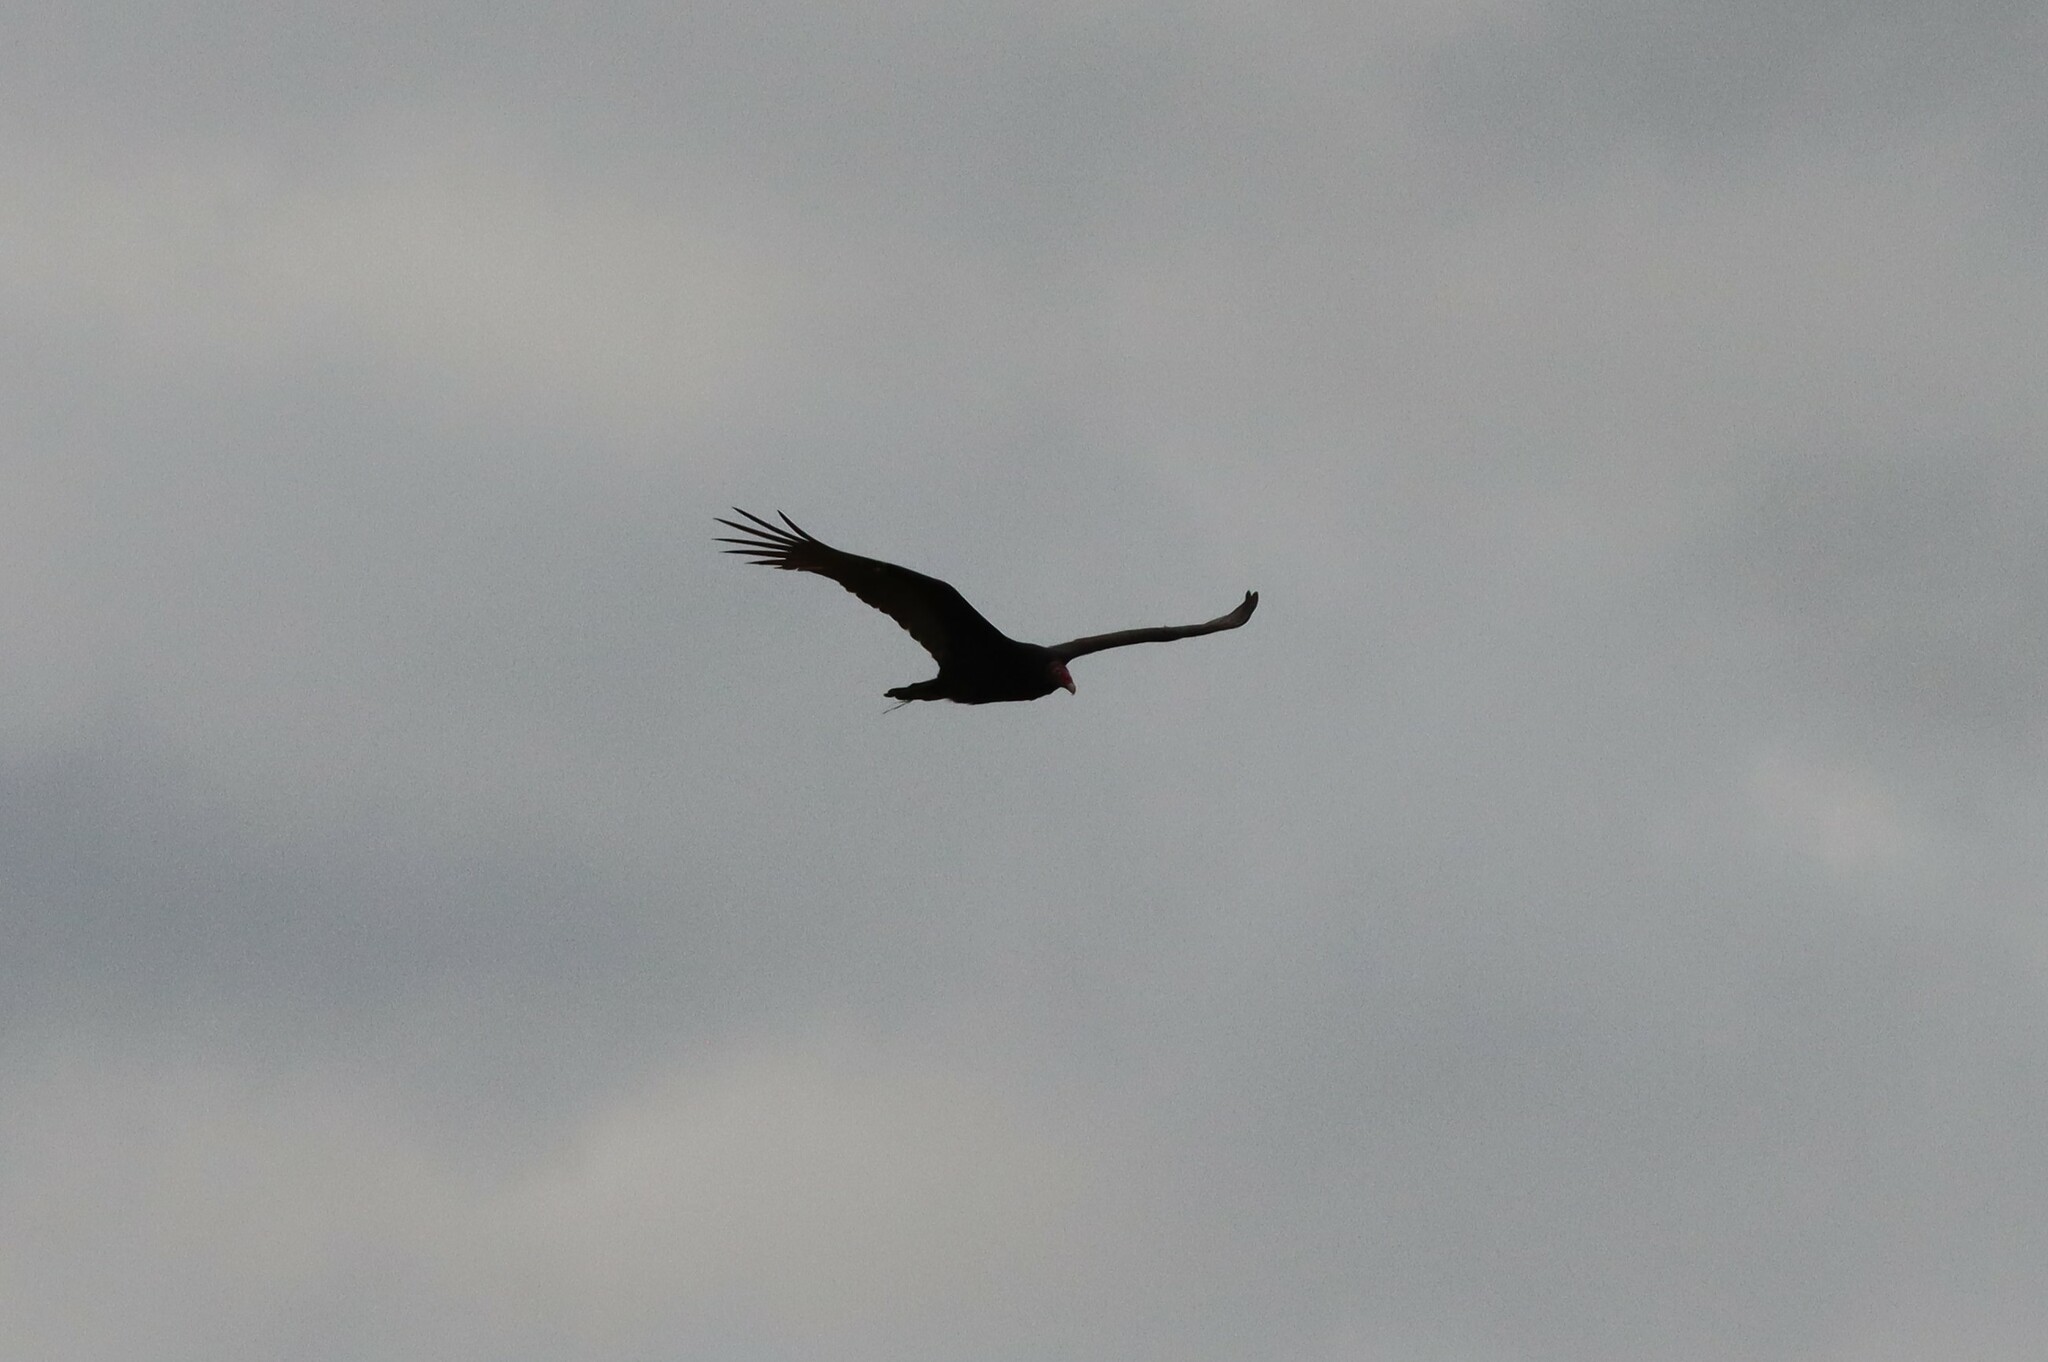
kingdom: Animalia
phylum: Chordata
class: Aves
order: Accipitriformes
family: Cathartidae
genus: Cathartes
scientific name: Cathartes aura
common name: Turkey vulture
